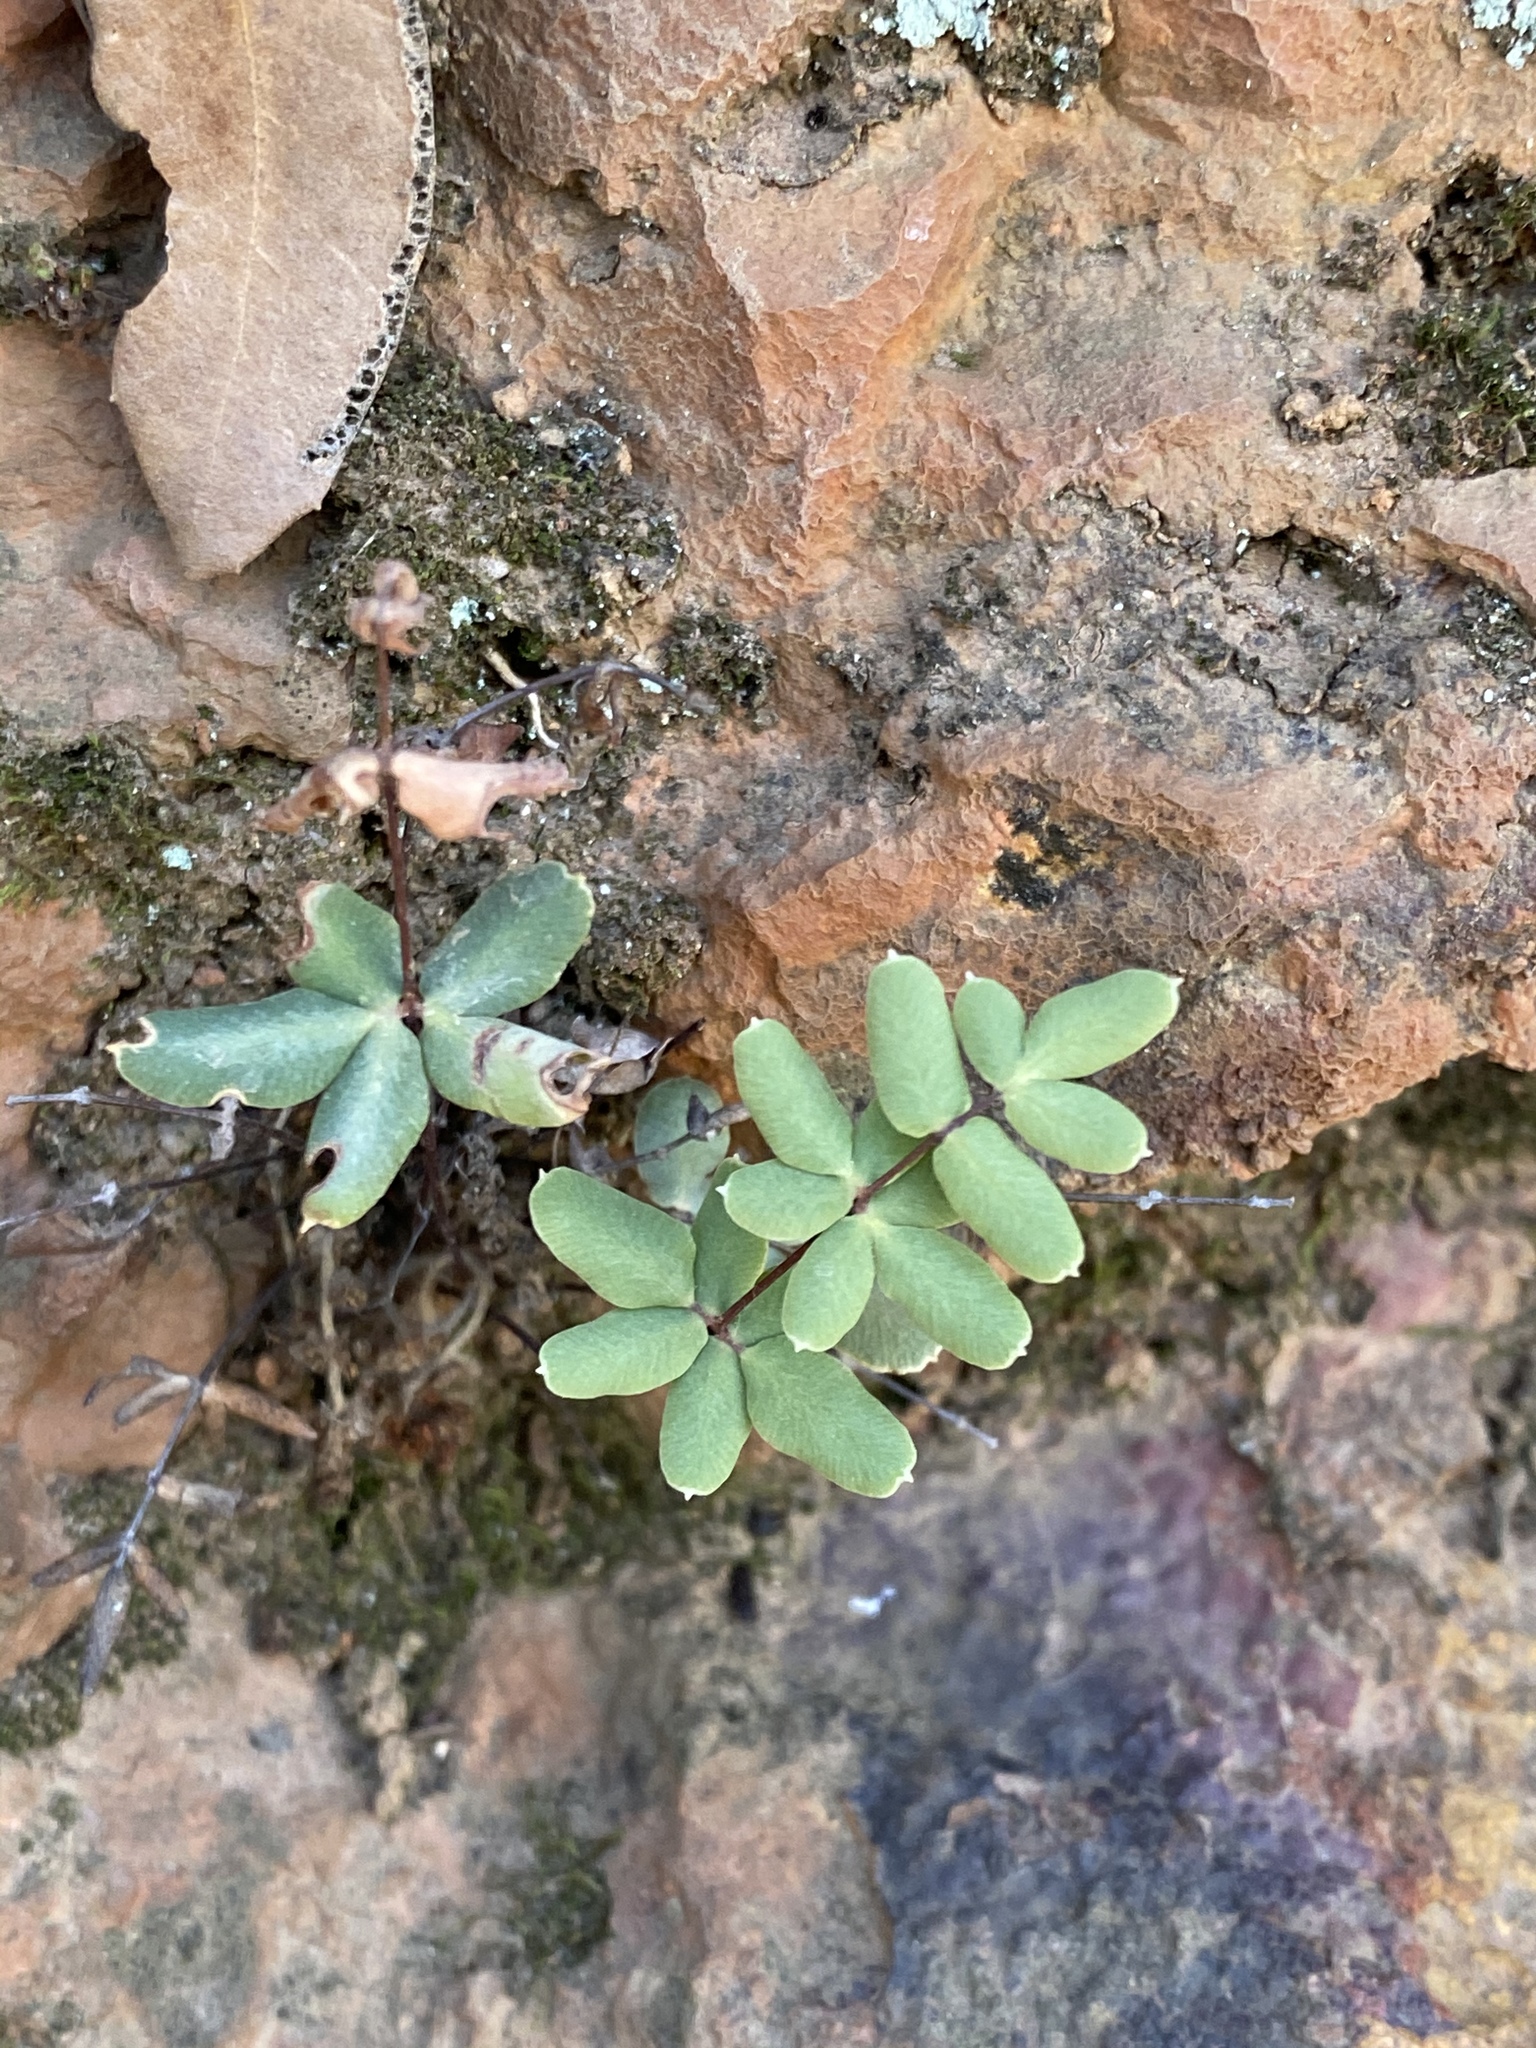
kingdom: Plantae
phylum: Tracheophyta
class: Polypodiopsida
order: Polypodiales
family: Pteridaceae
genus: Pellaea
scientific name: Pellaea truncata
